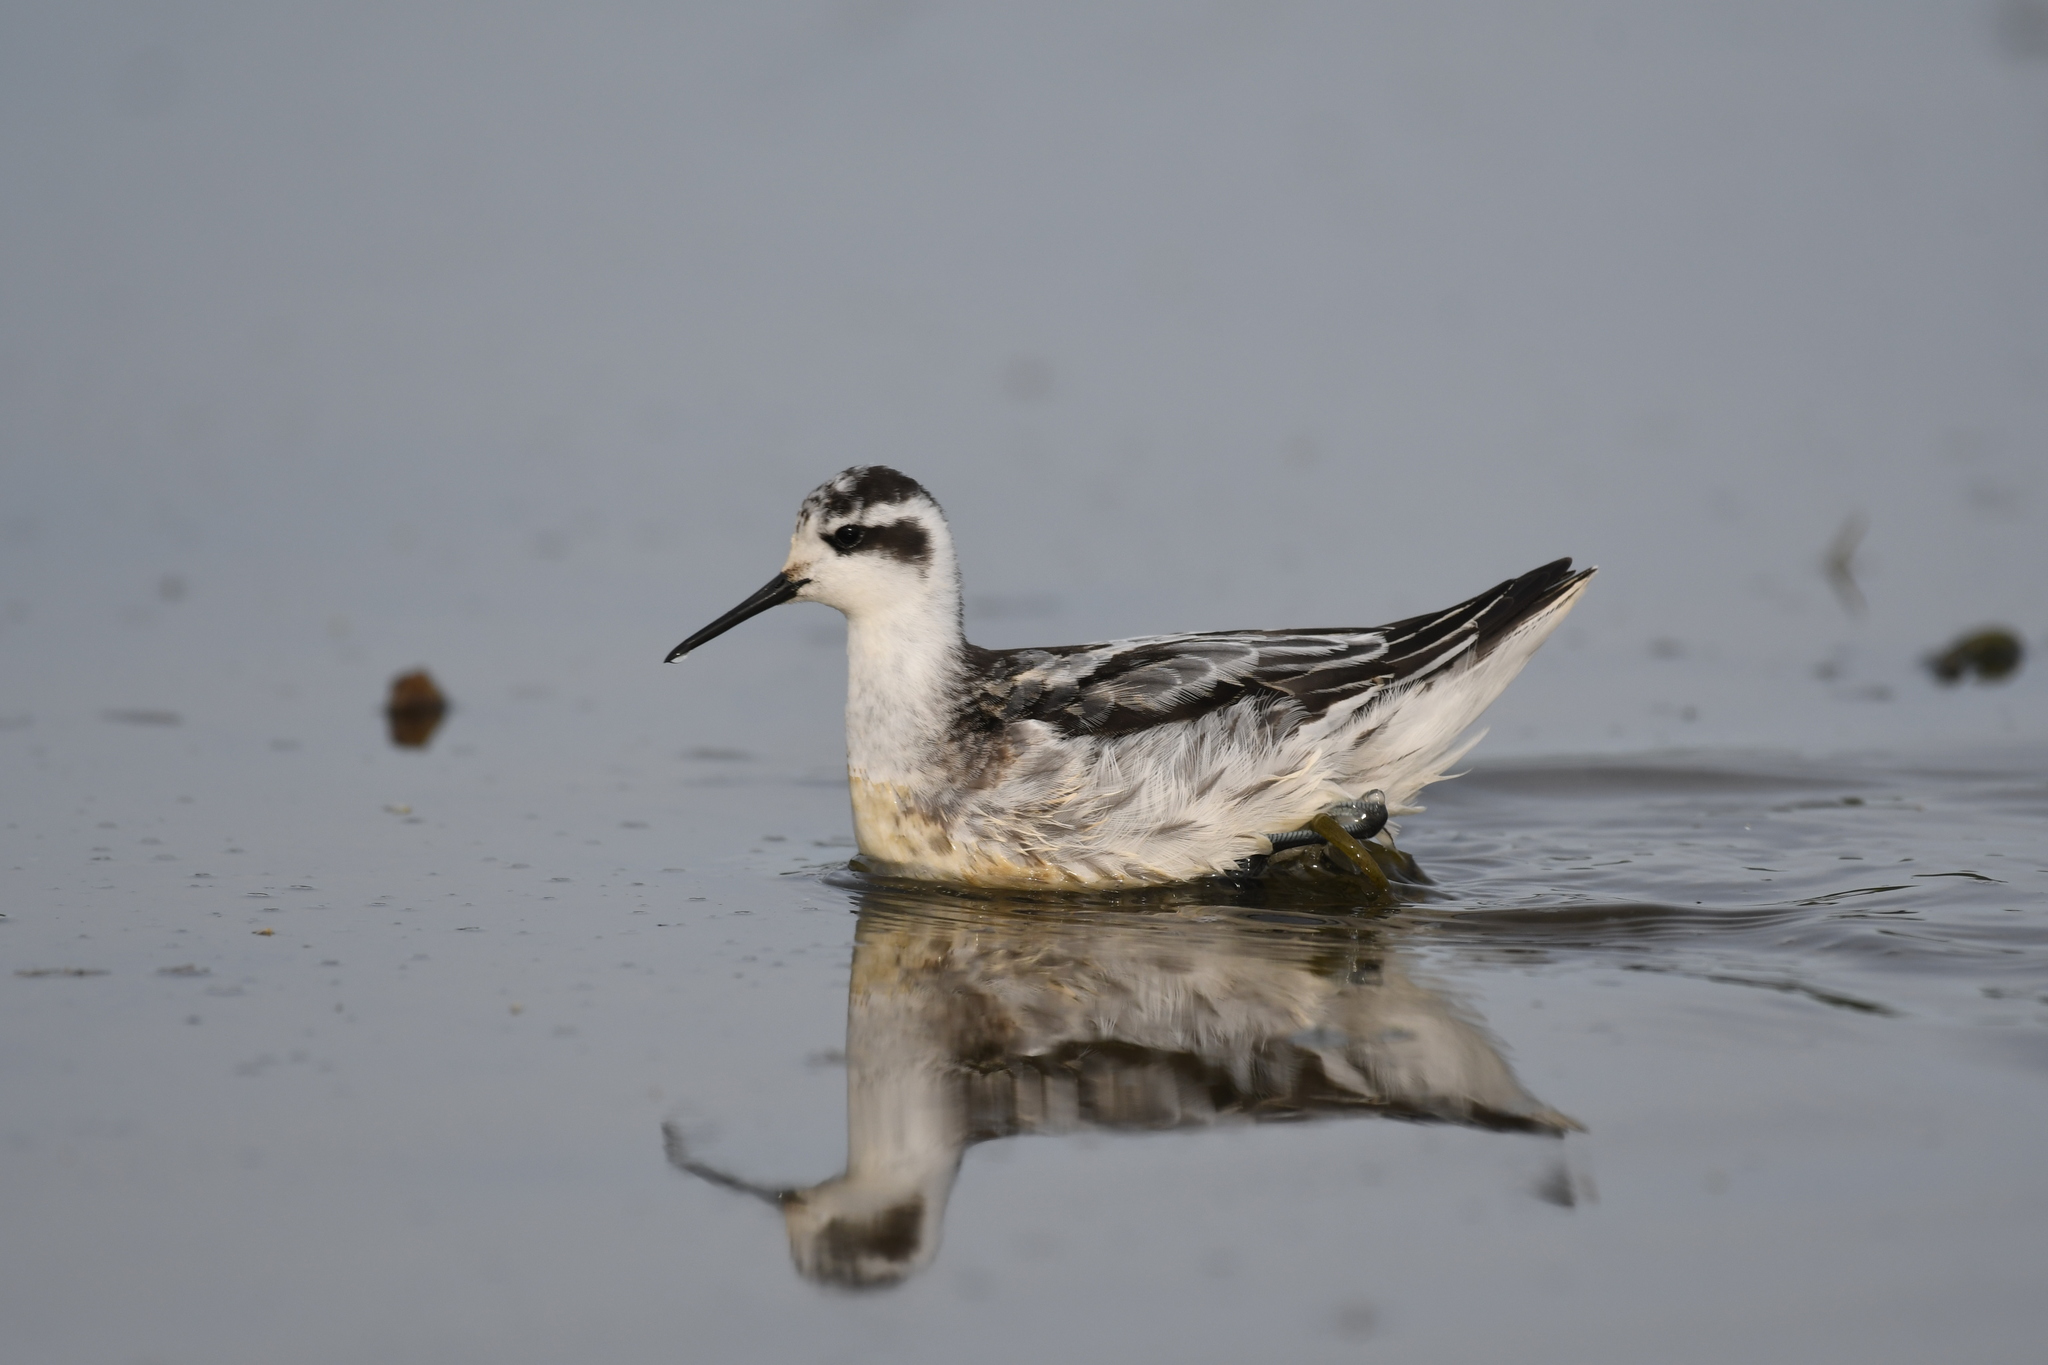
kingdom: Animalia
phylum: Chordata
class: Aves
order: Charadriiformes
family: Scolopacidae
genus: Phalaropus
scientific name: Phalaropus lobatus
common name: Red-necked phalarope
